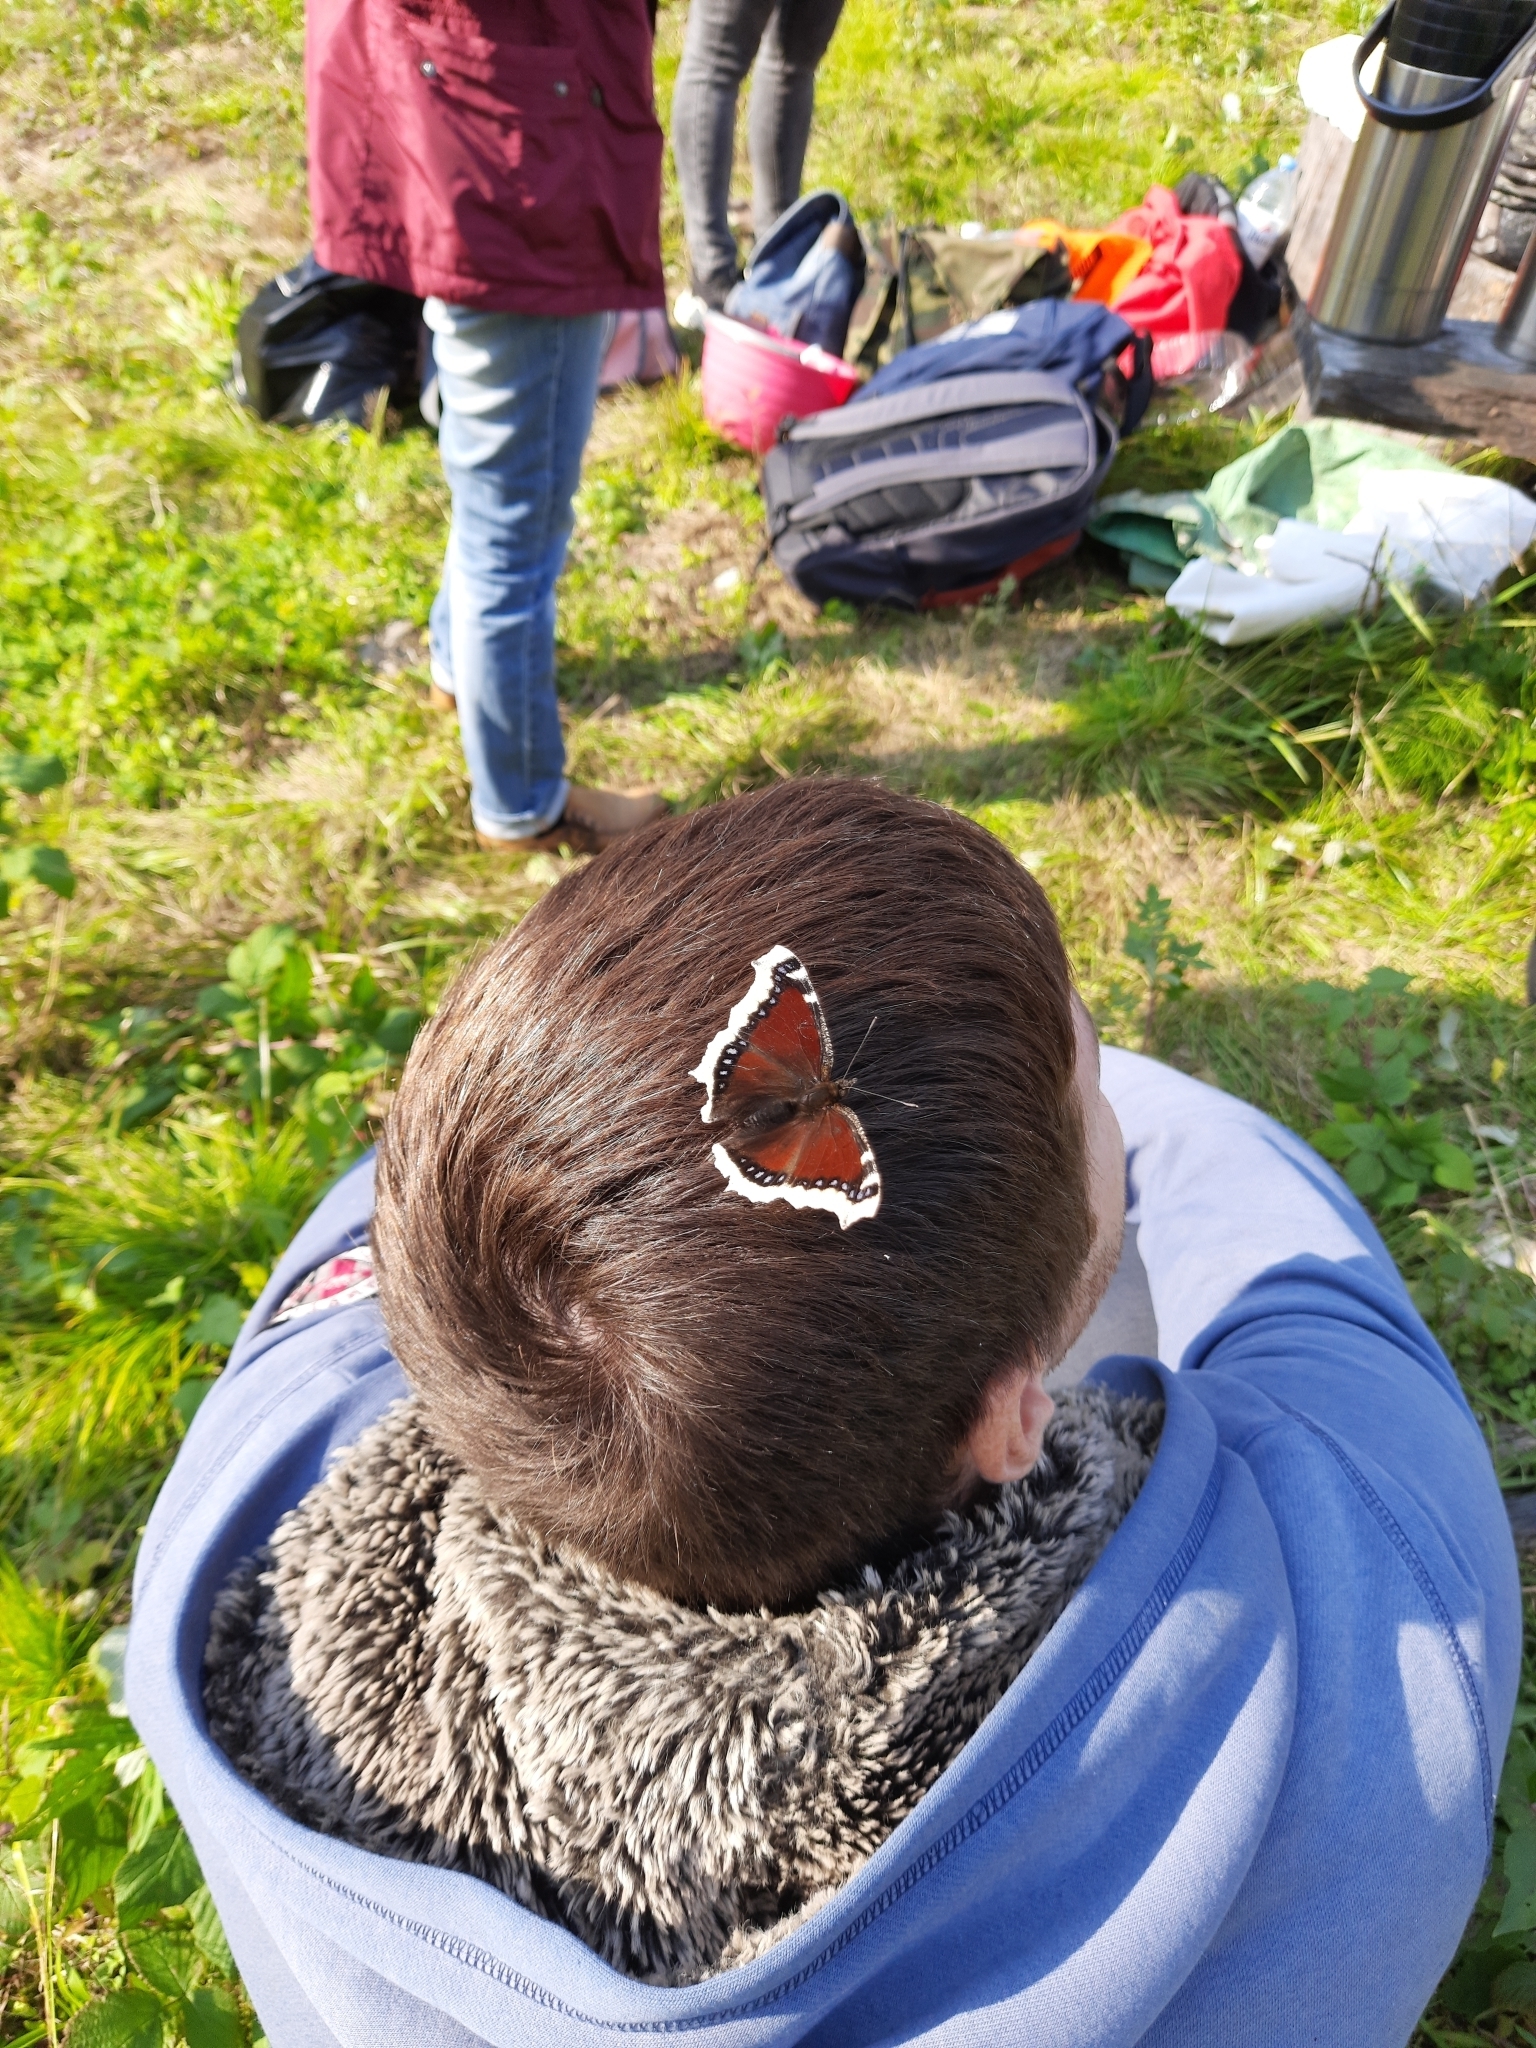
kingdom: Animalia
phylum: Arthropoda
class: Insecta
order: Lepidoptera
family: Nymphalidae
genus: Nymphalis
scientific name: Nymphalis antiopa
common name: Camberwell beauty
